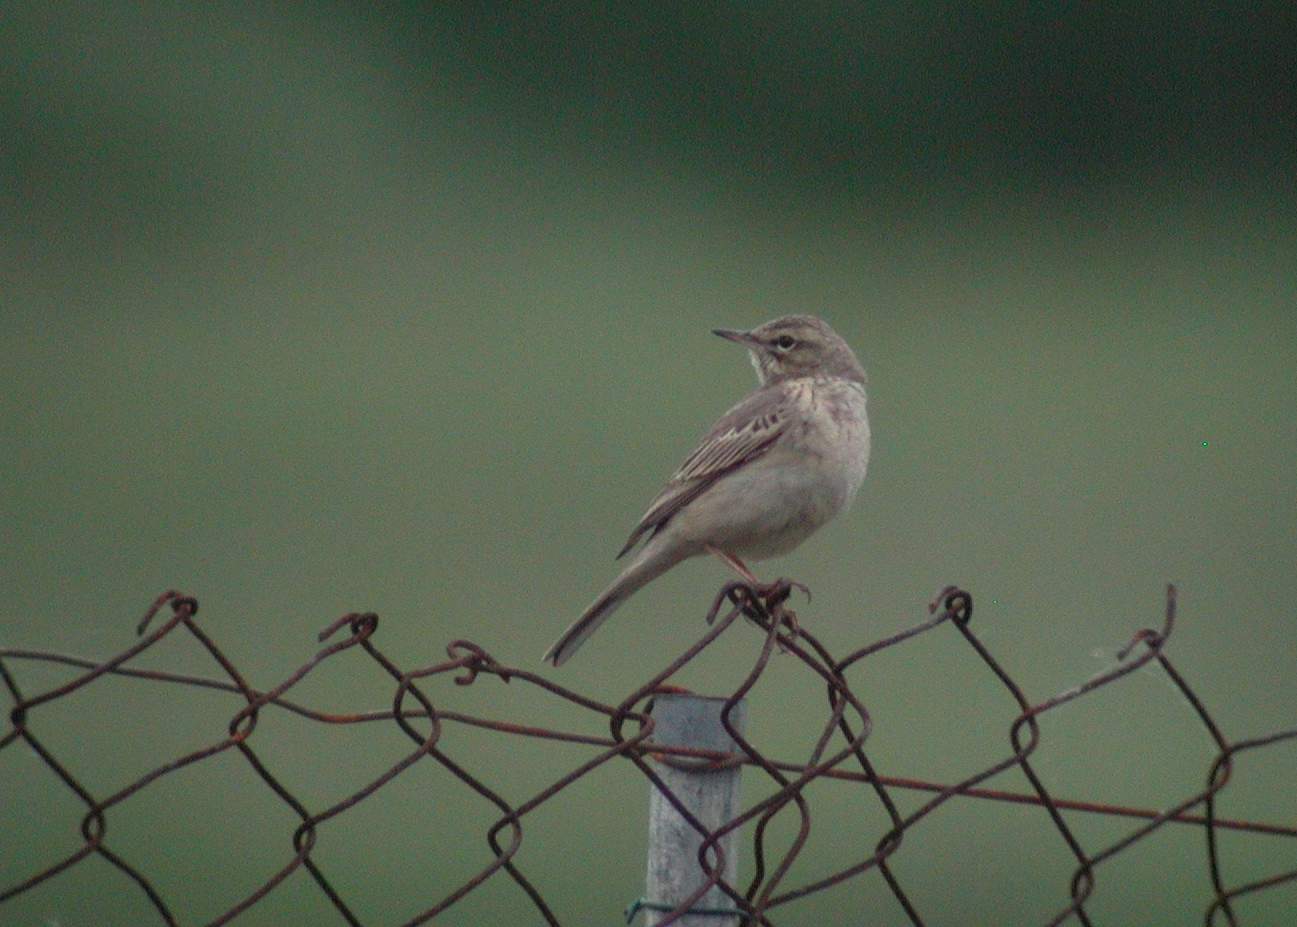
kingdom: Animalia
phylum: Chordata
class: Aves
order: Passeriformes
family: Motacillidae
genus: Anthus
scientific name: Anthus campestris
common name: Tawny pipit
